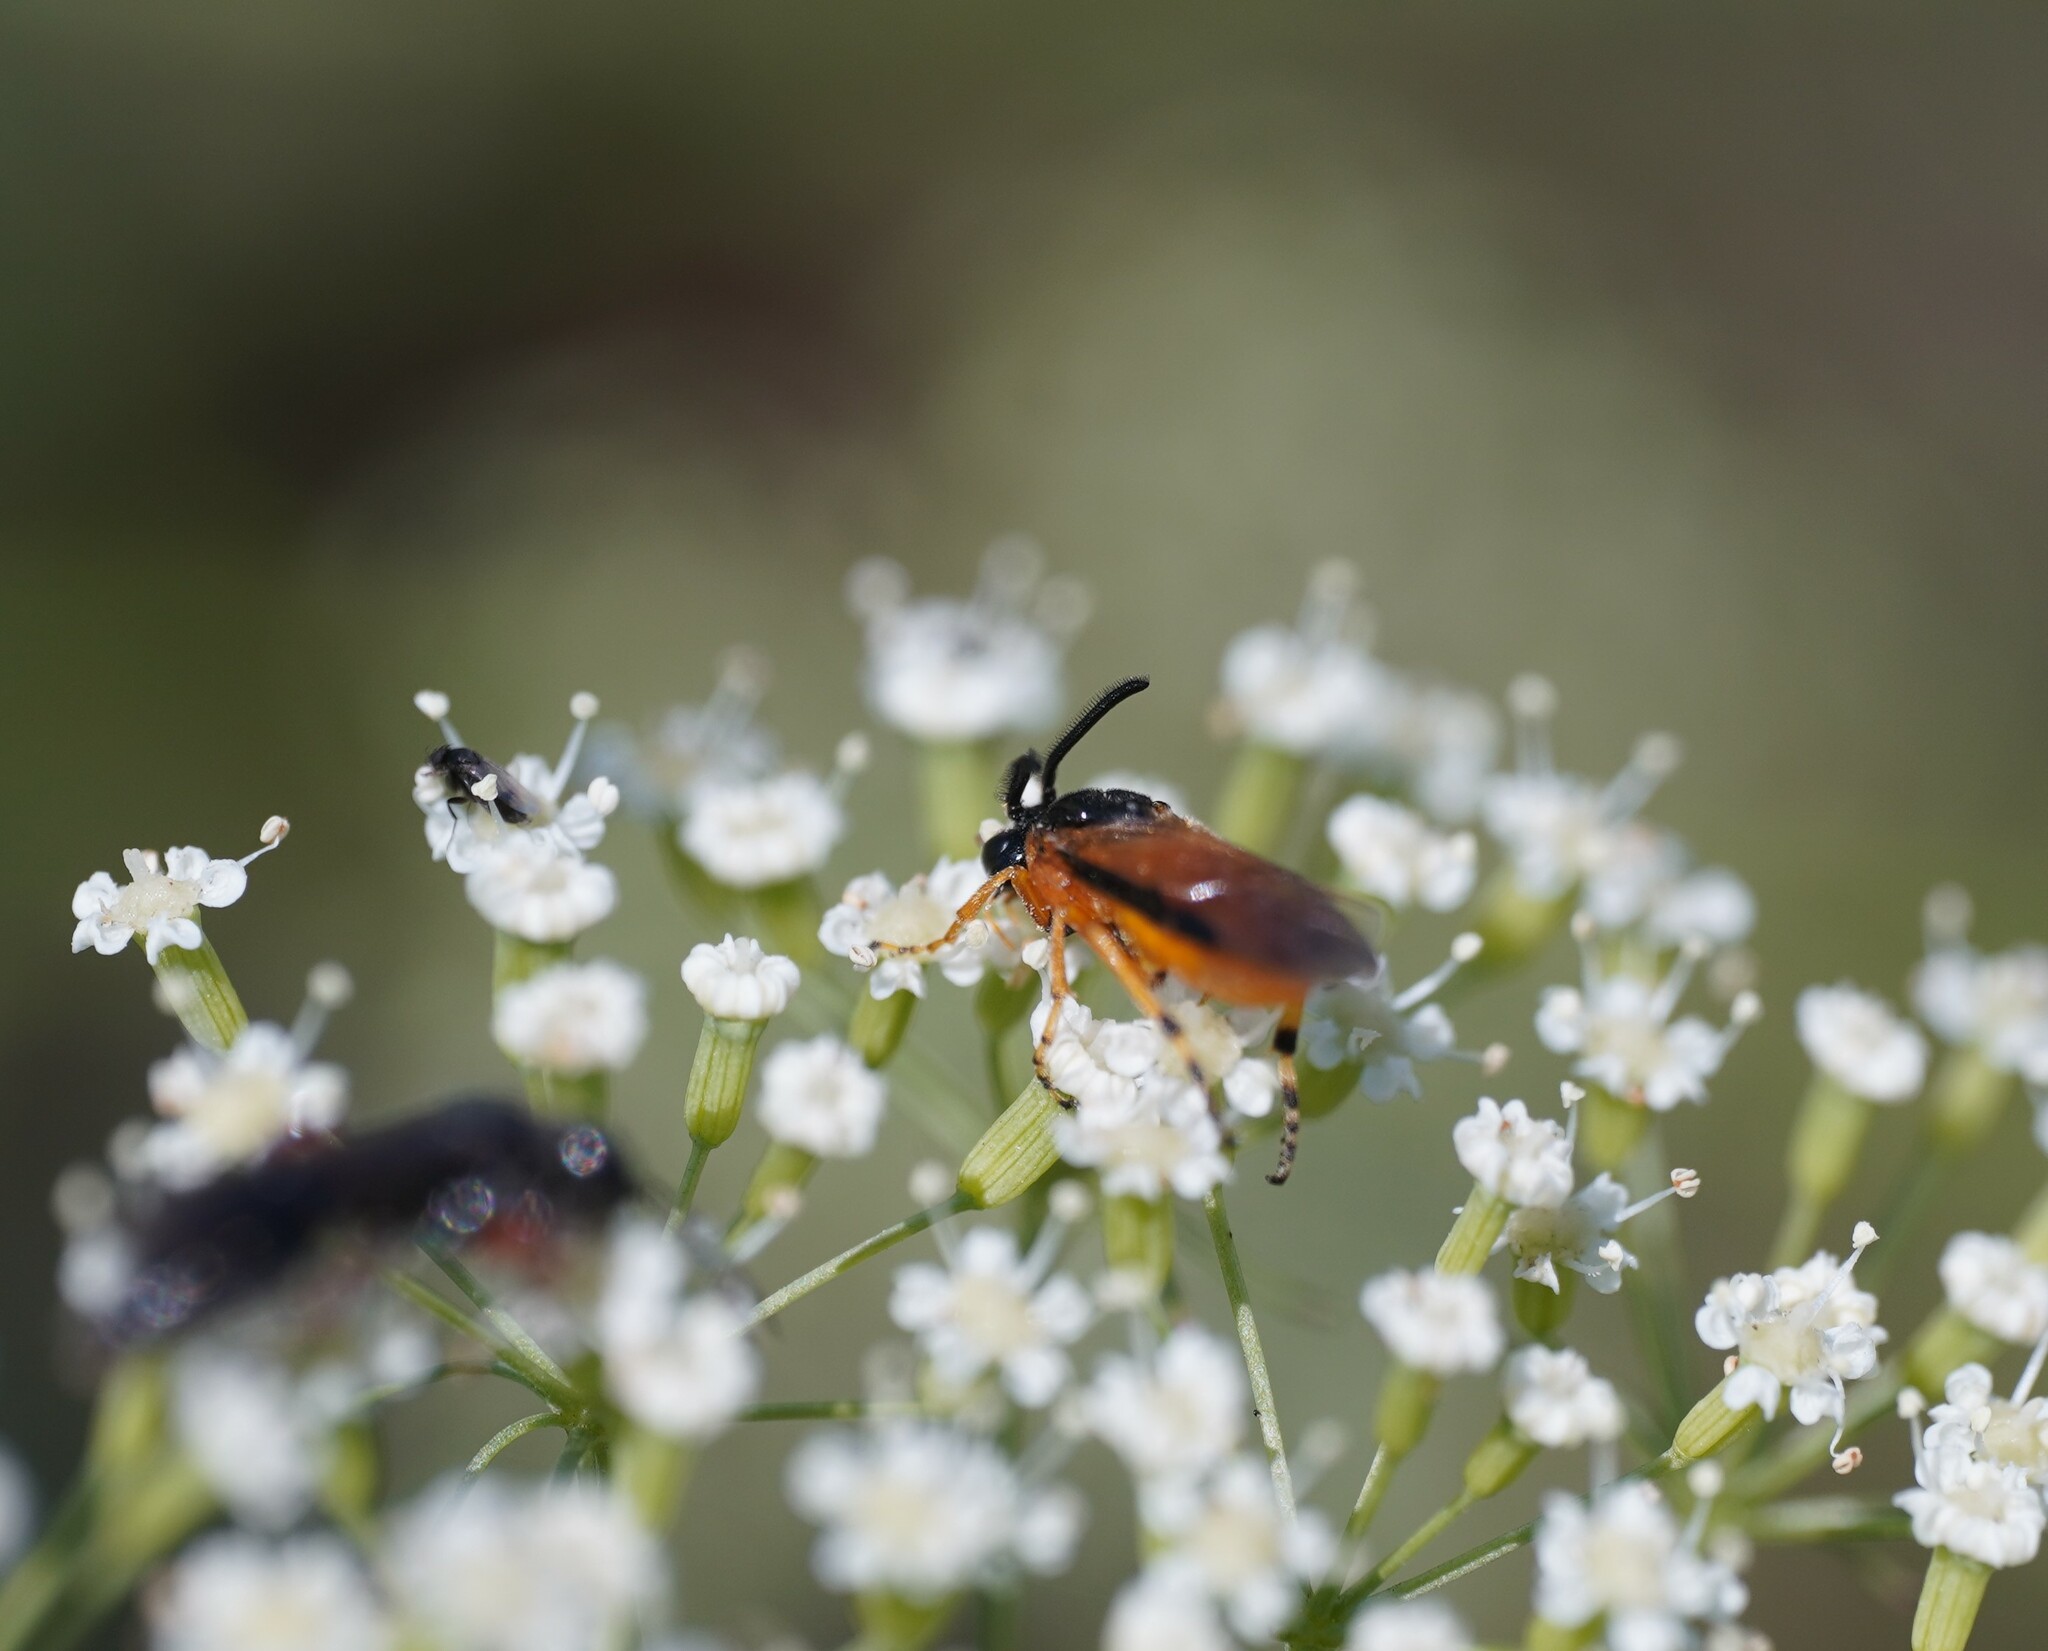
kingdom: Animalia
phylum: Arthropoda
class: Insecta
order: Hymenoptera
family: Argidae
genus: Arge
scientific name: Arge ochropus
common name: Argid sawfly
